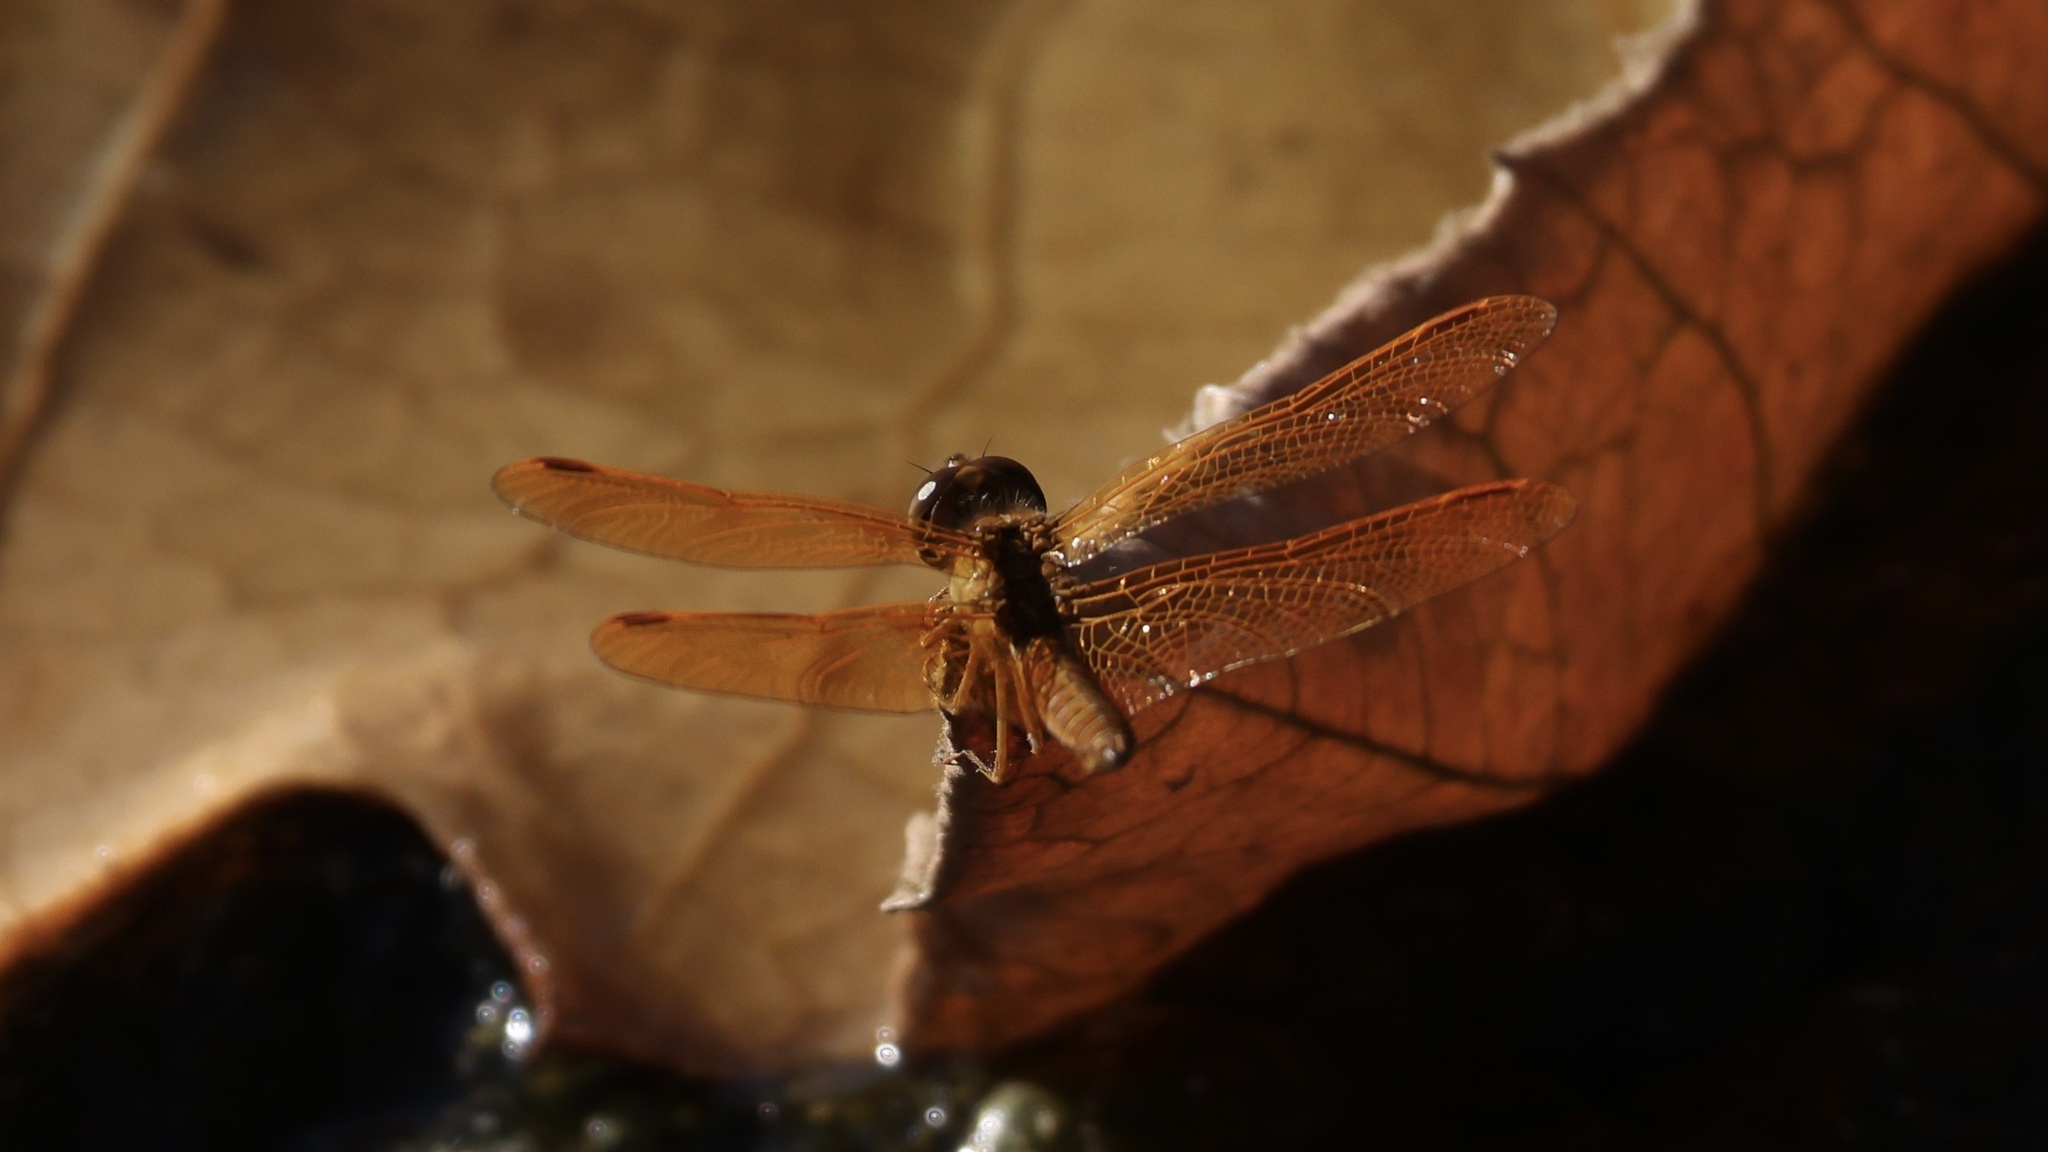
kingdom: Animalia
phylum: Arthropoda
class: Insecta
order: Odonata
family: Libellulidae
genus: Perithemis
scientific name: Perithemis intensa
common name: Mexican amberwing
